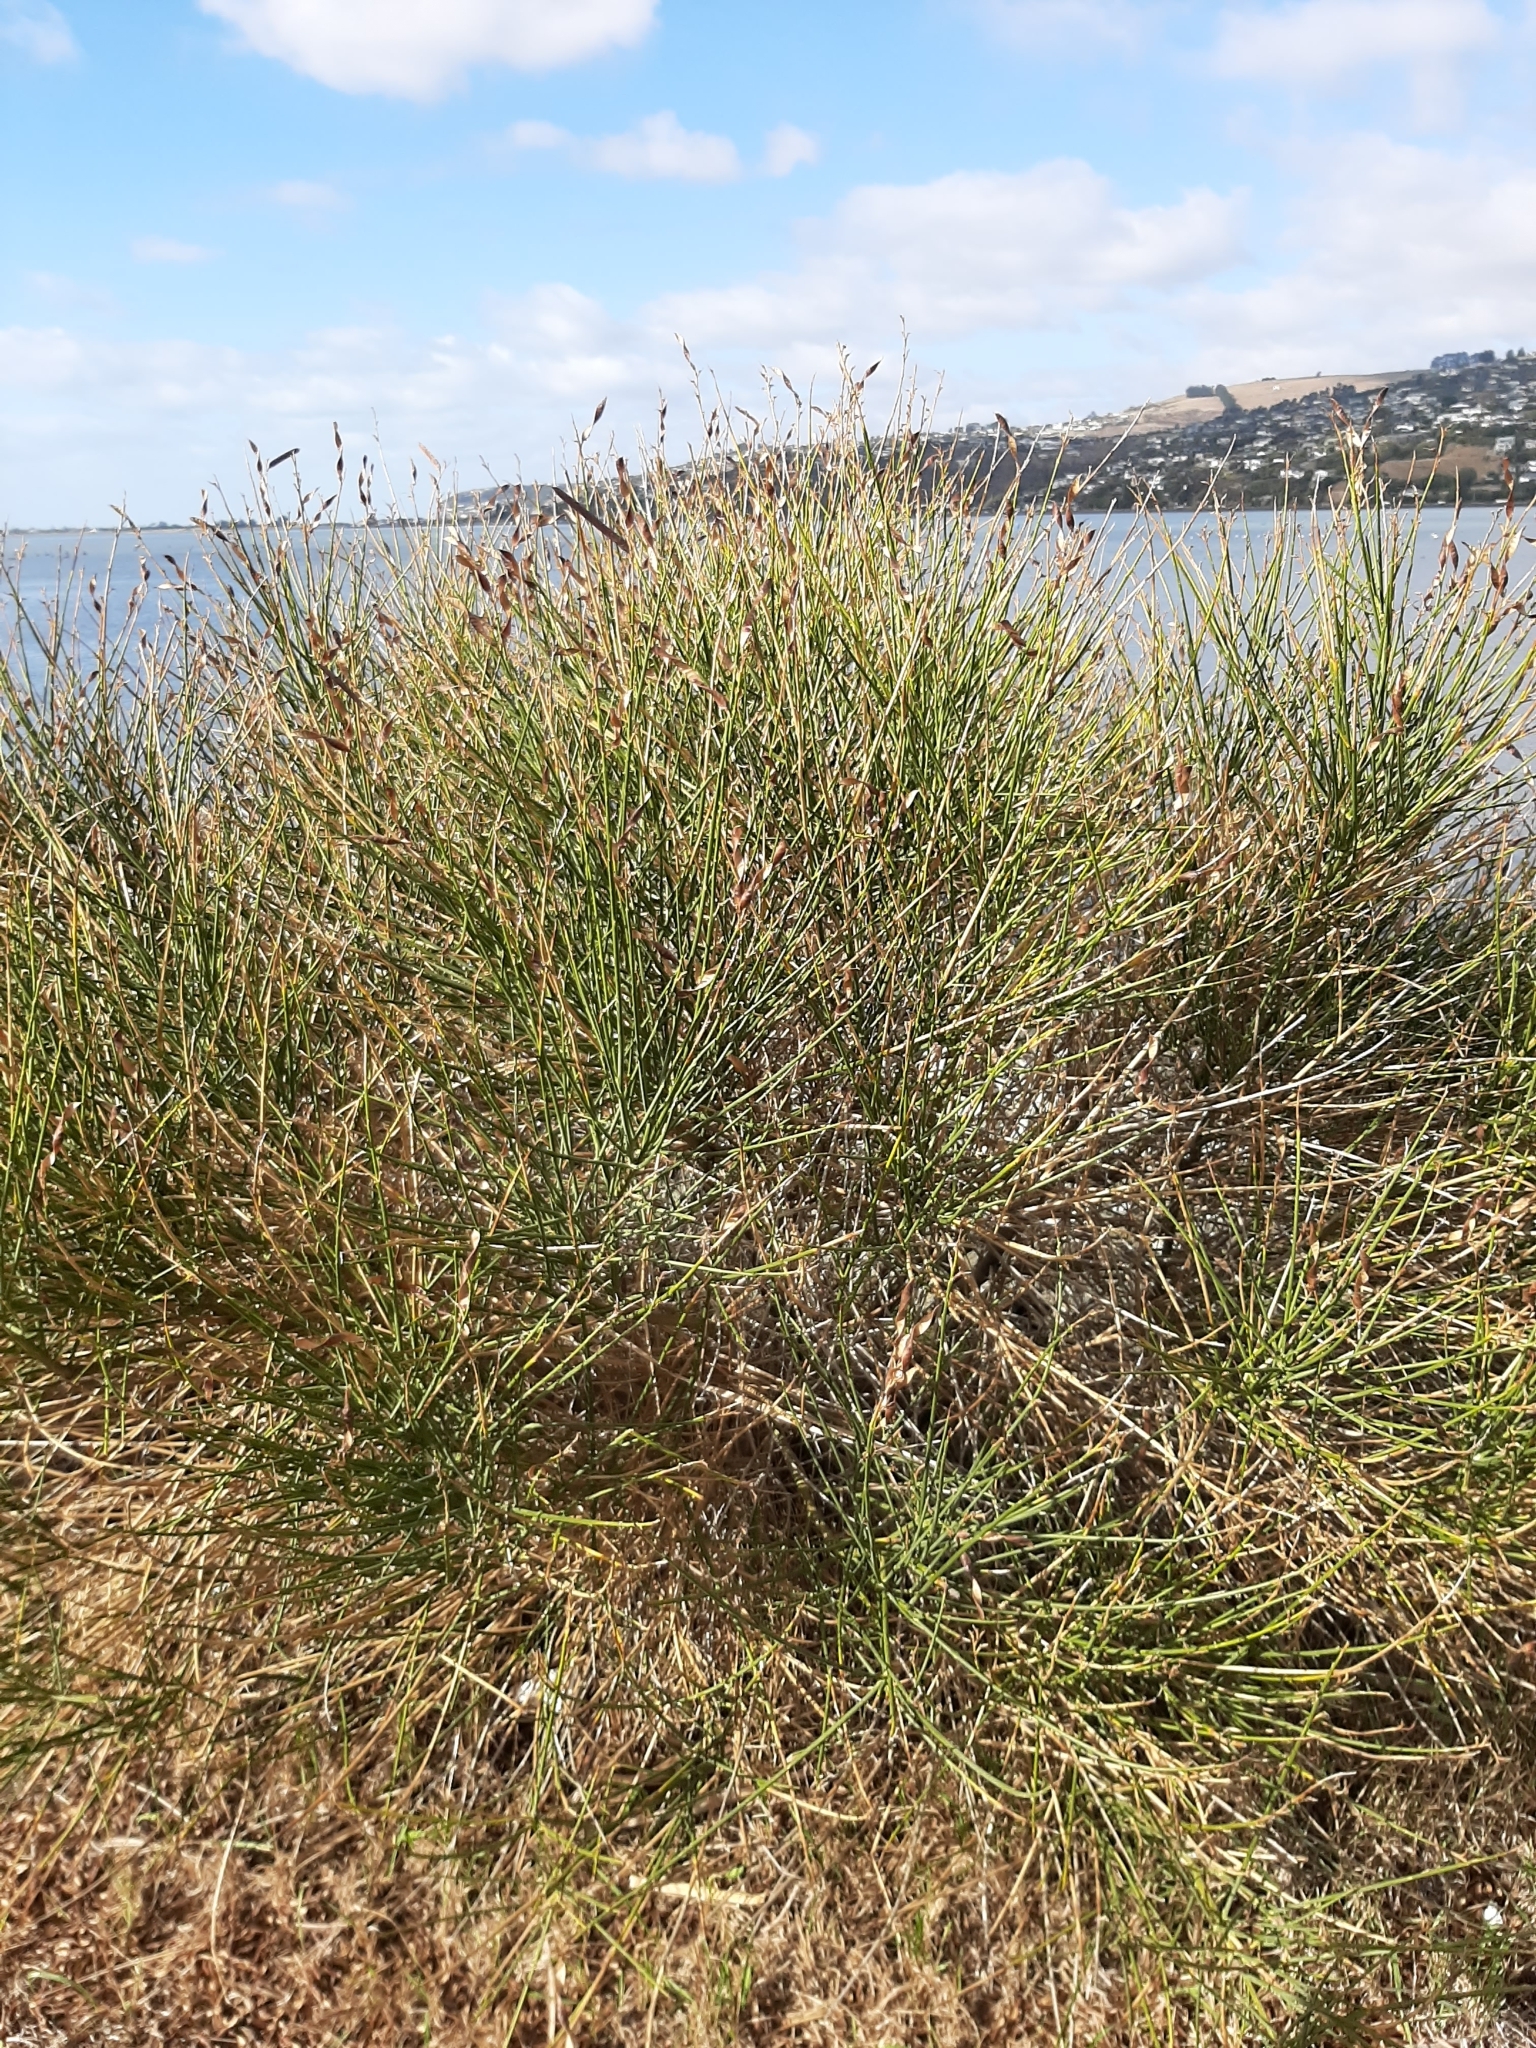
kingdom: Plantae
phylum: Tracheophyta
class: Magnoliopsida
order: Fabales
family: Fabaceae
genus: Spartium
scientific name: Spartium junceum
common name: Spanish broom
